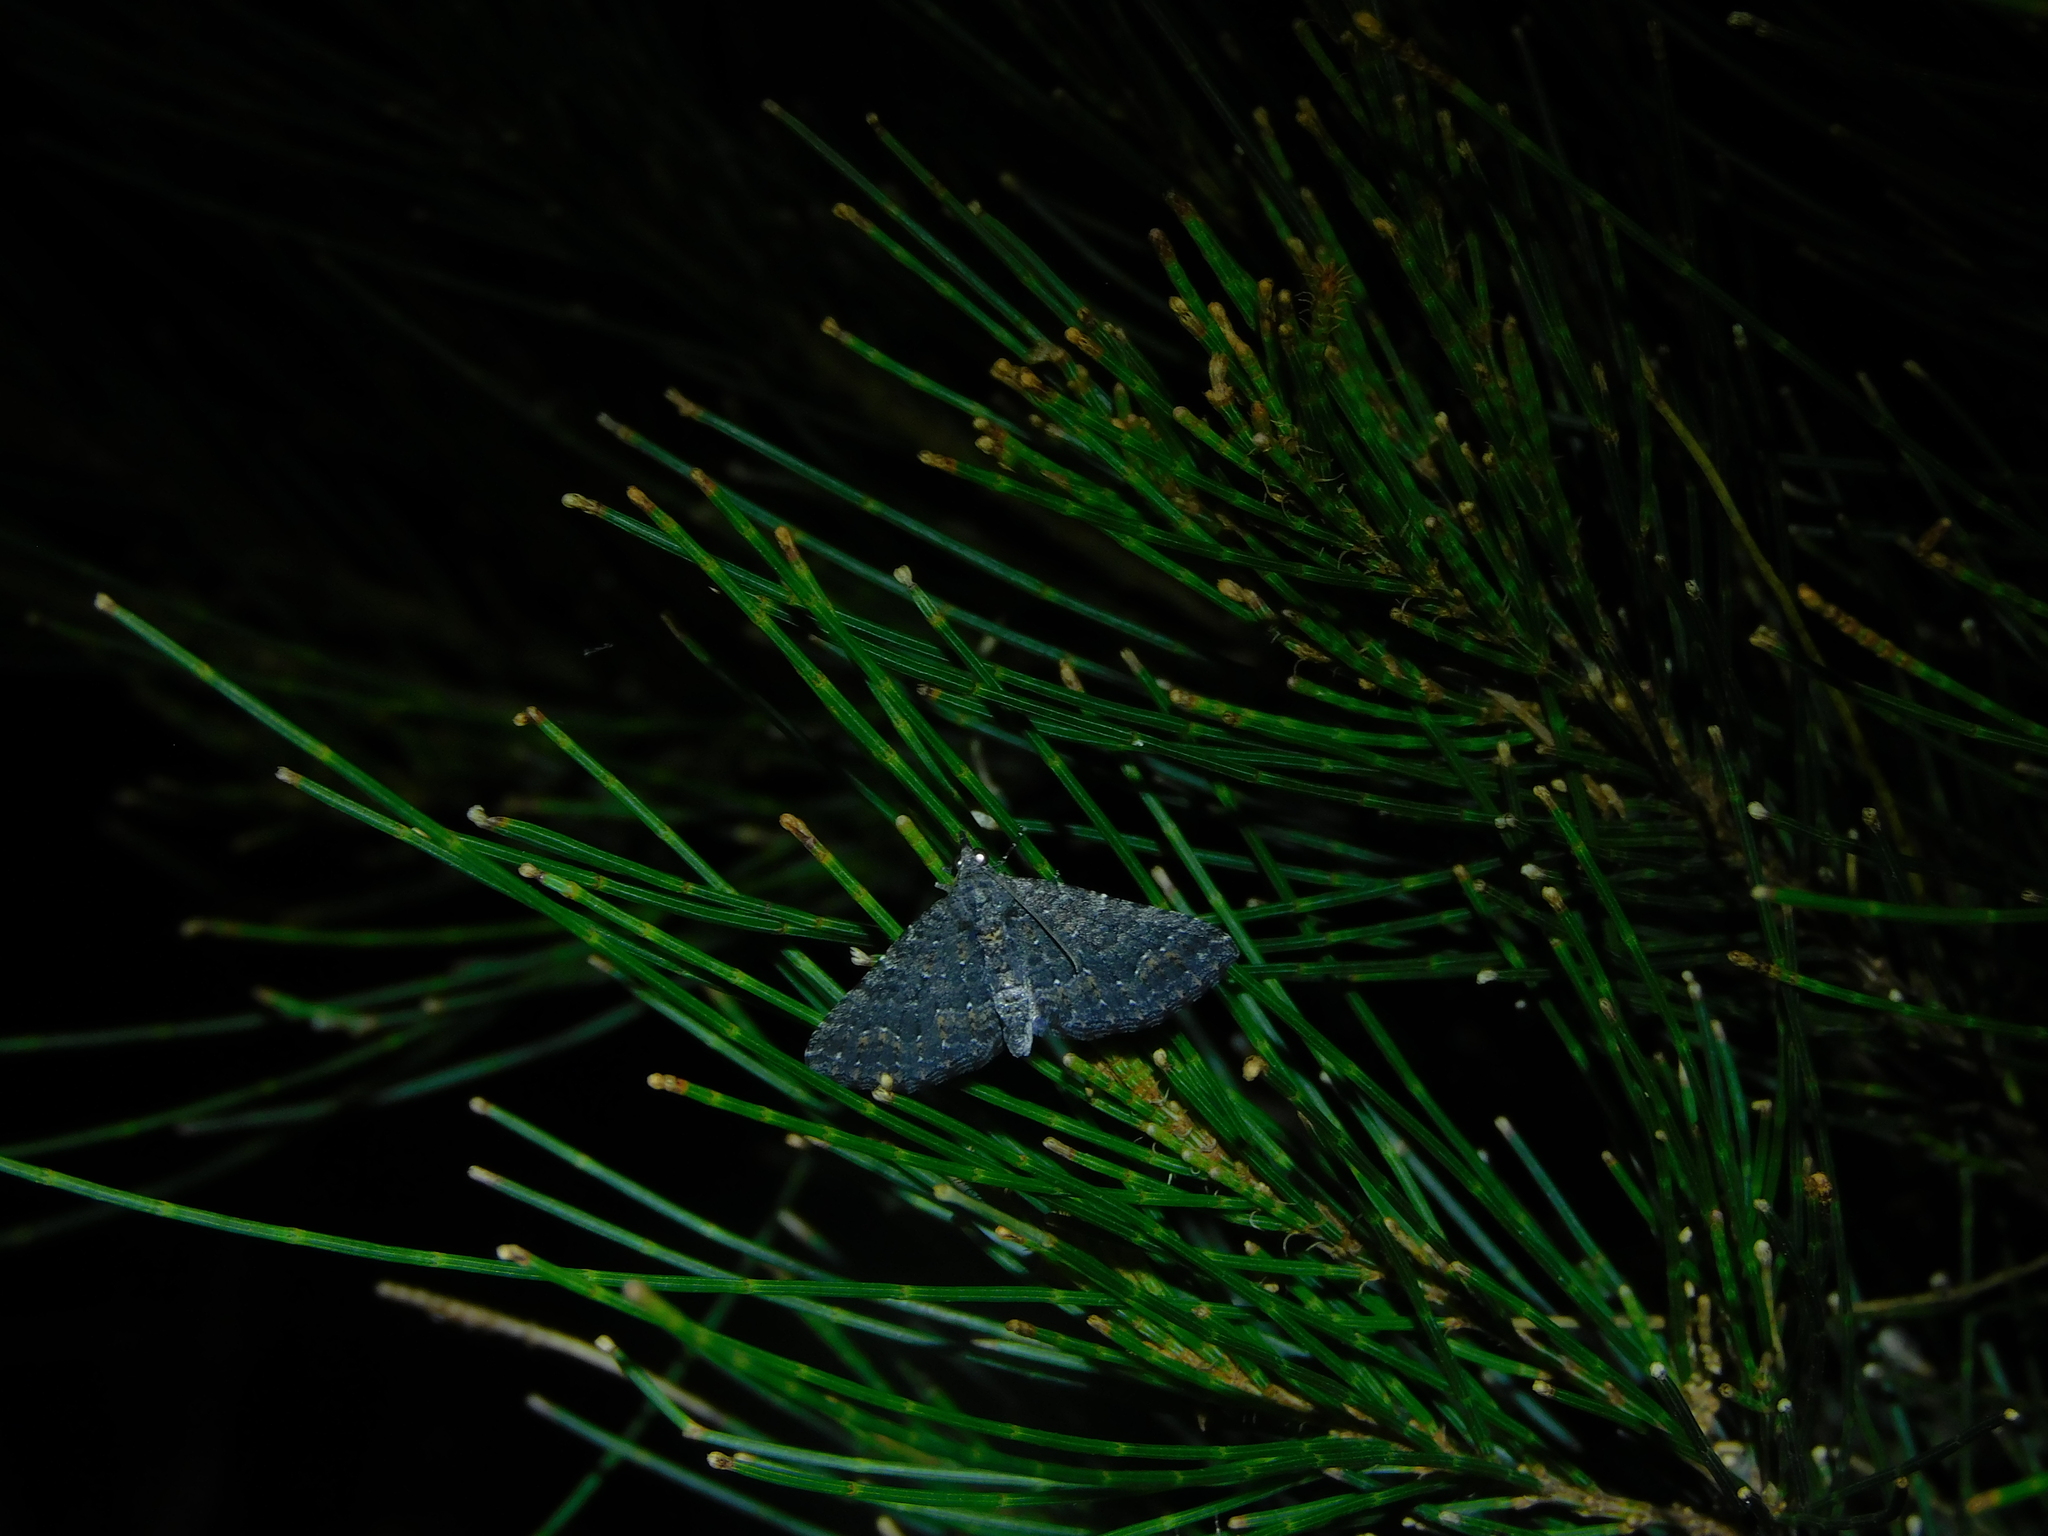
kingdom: Animalia
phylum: Arthropoda
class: Insecta
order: Lepidoptera
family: Geometridae
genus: Xanthorhoe
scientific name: Xanthorhoe xerodes
